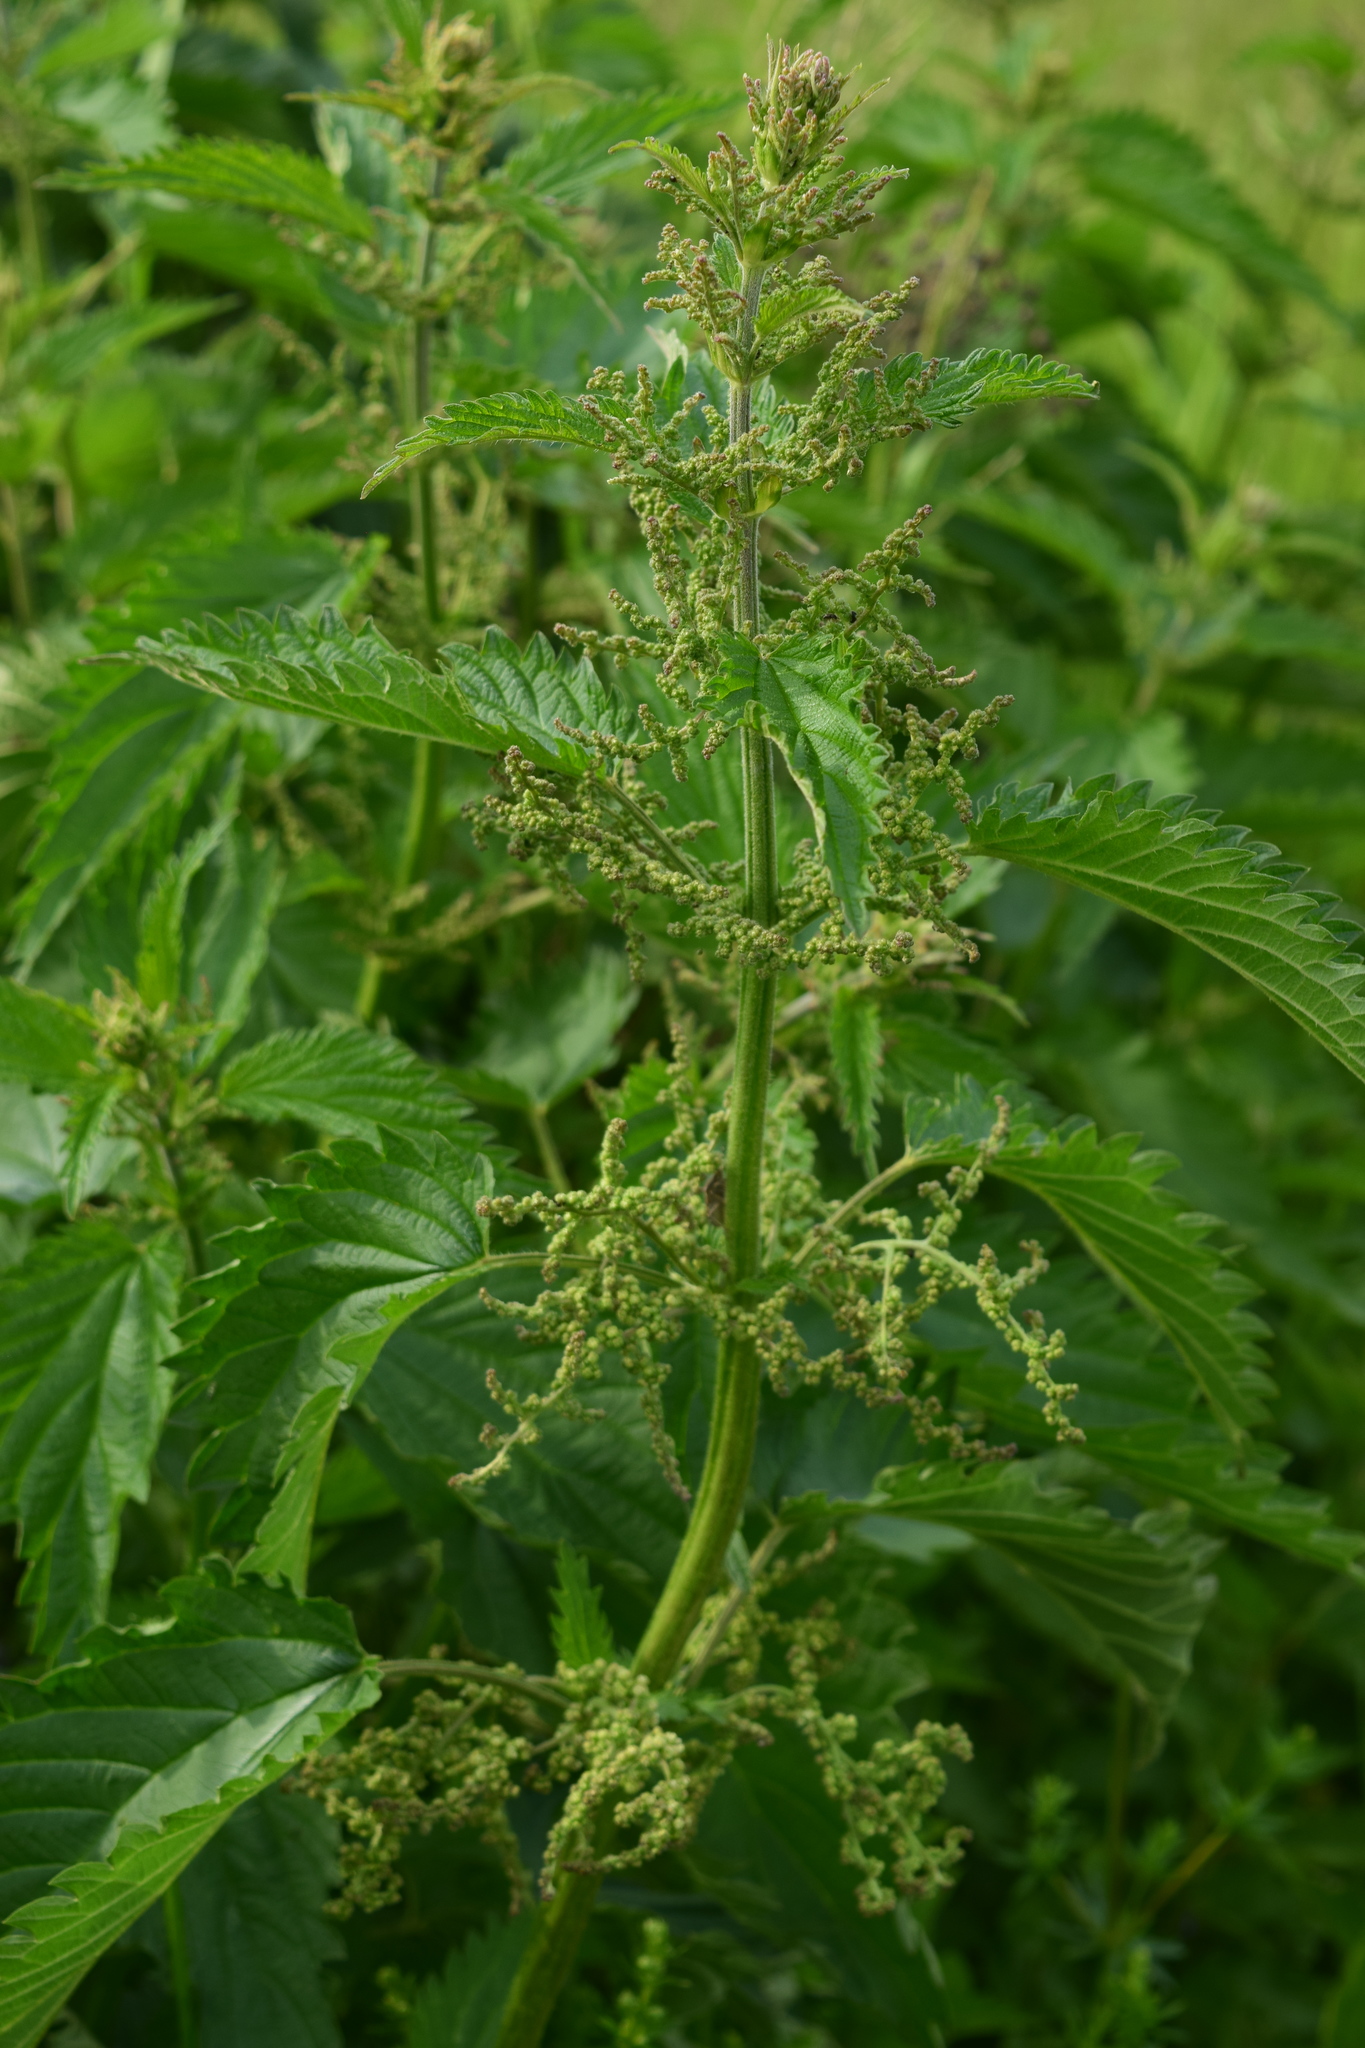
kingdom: Plantae
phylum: Tracheophyta
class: Magnoliopsida
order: Rosales
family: Urticaceae
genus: Urtica
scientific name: Urtica dioica
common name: Common nettle
